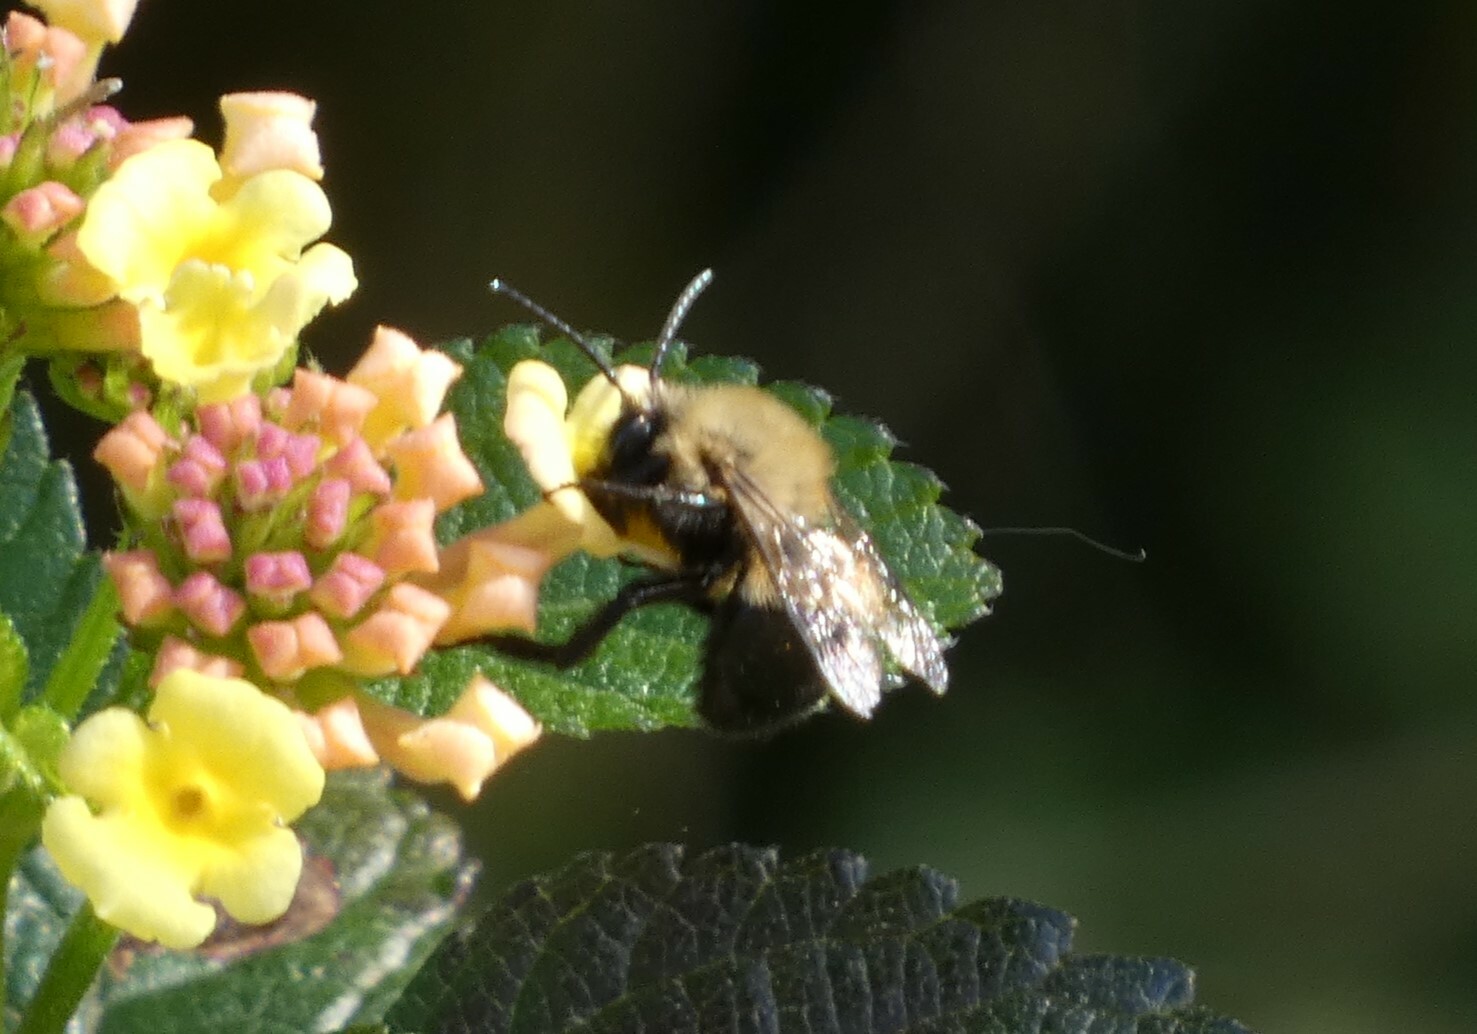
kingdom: Animalia
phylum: Arthropoda
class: Insecta
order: Hymenoptera
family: Apidae
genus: Habropoda
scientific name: Habropoda laboriosa
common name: Southeastern blueberry bee
